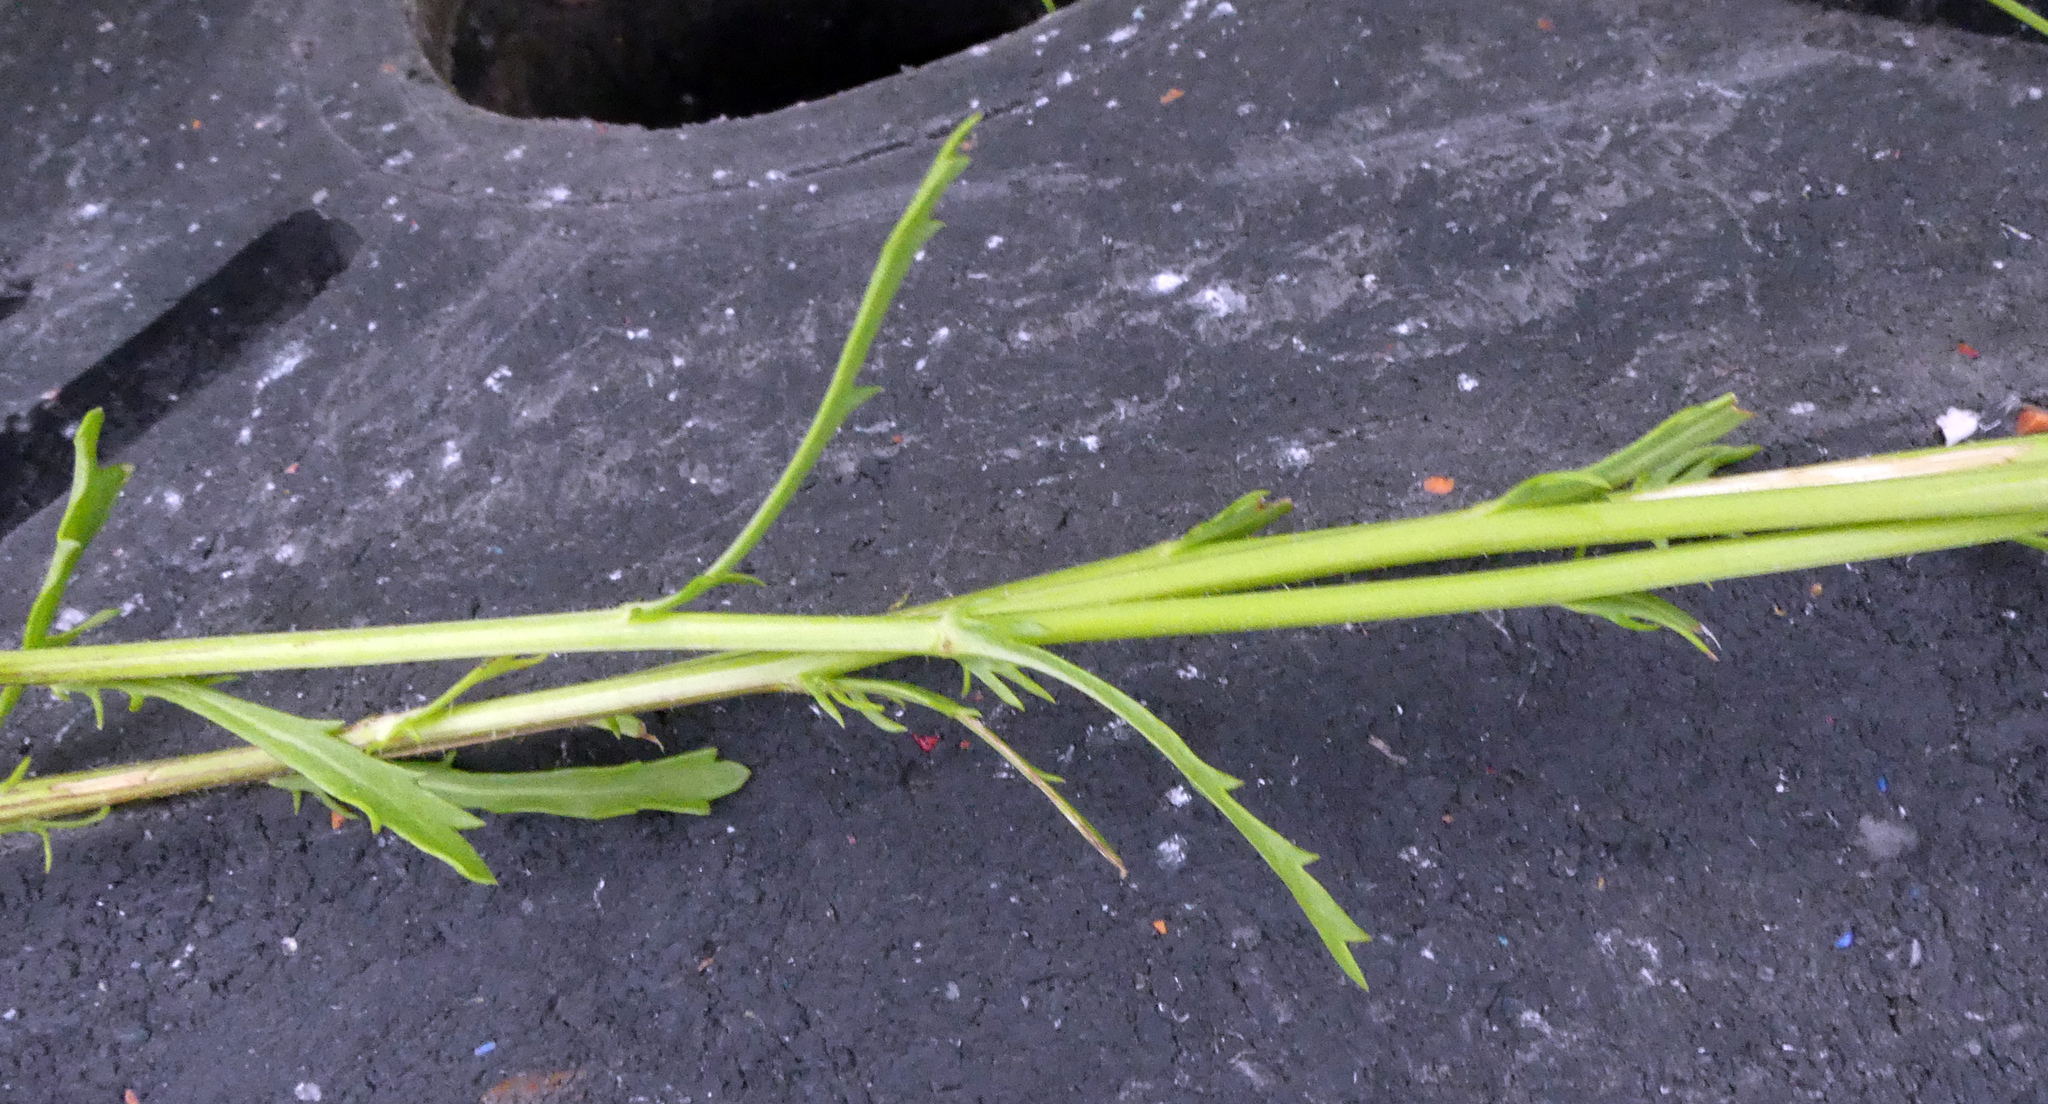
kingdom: Plantae
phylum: Tracheophyta
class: Magnoliopsida
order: Asterales
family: Asteraceae
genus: Leucanthemum
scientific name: Leucanthemum vulgare
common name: Oxeye daisy
